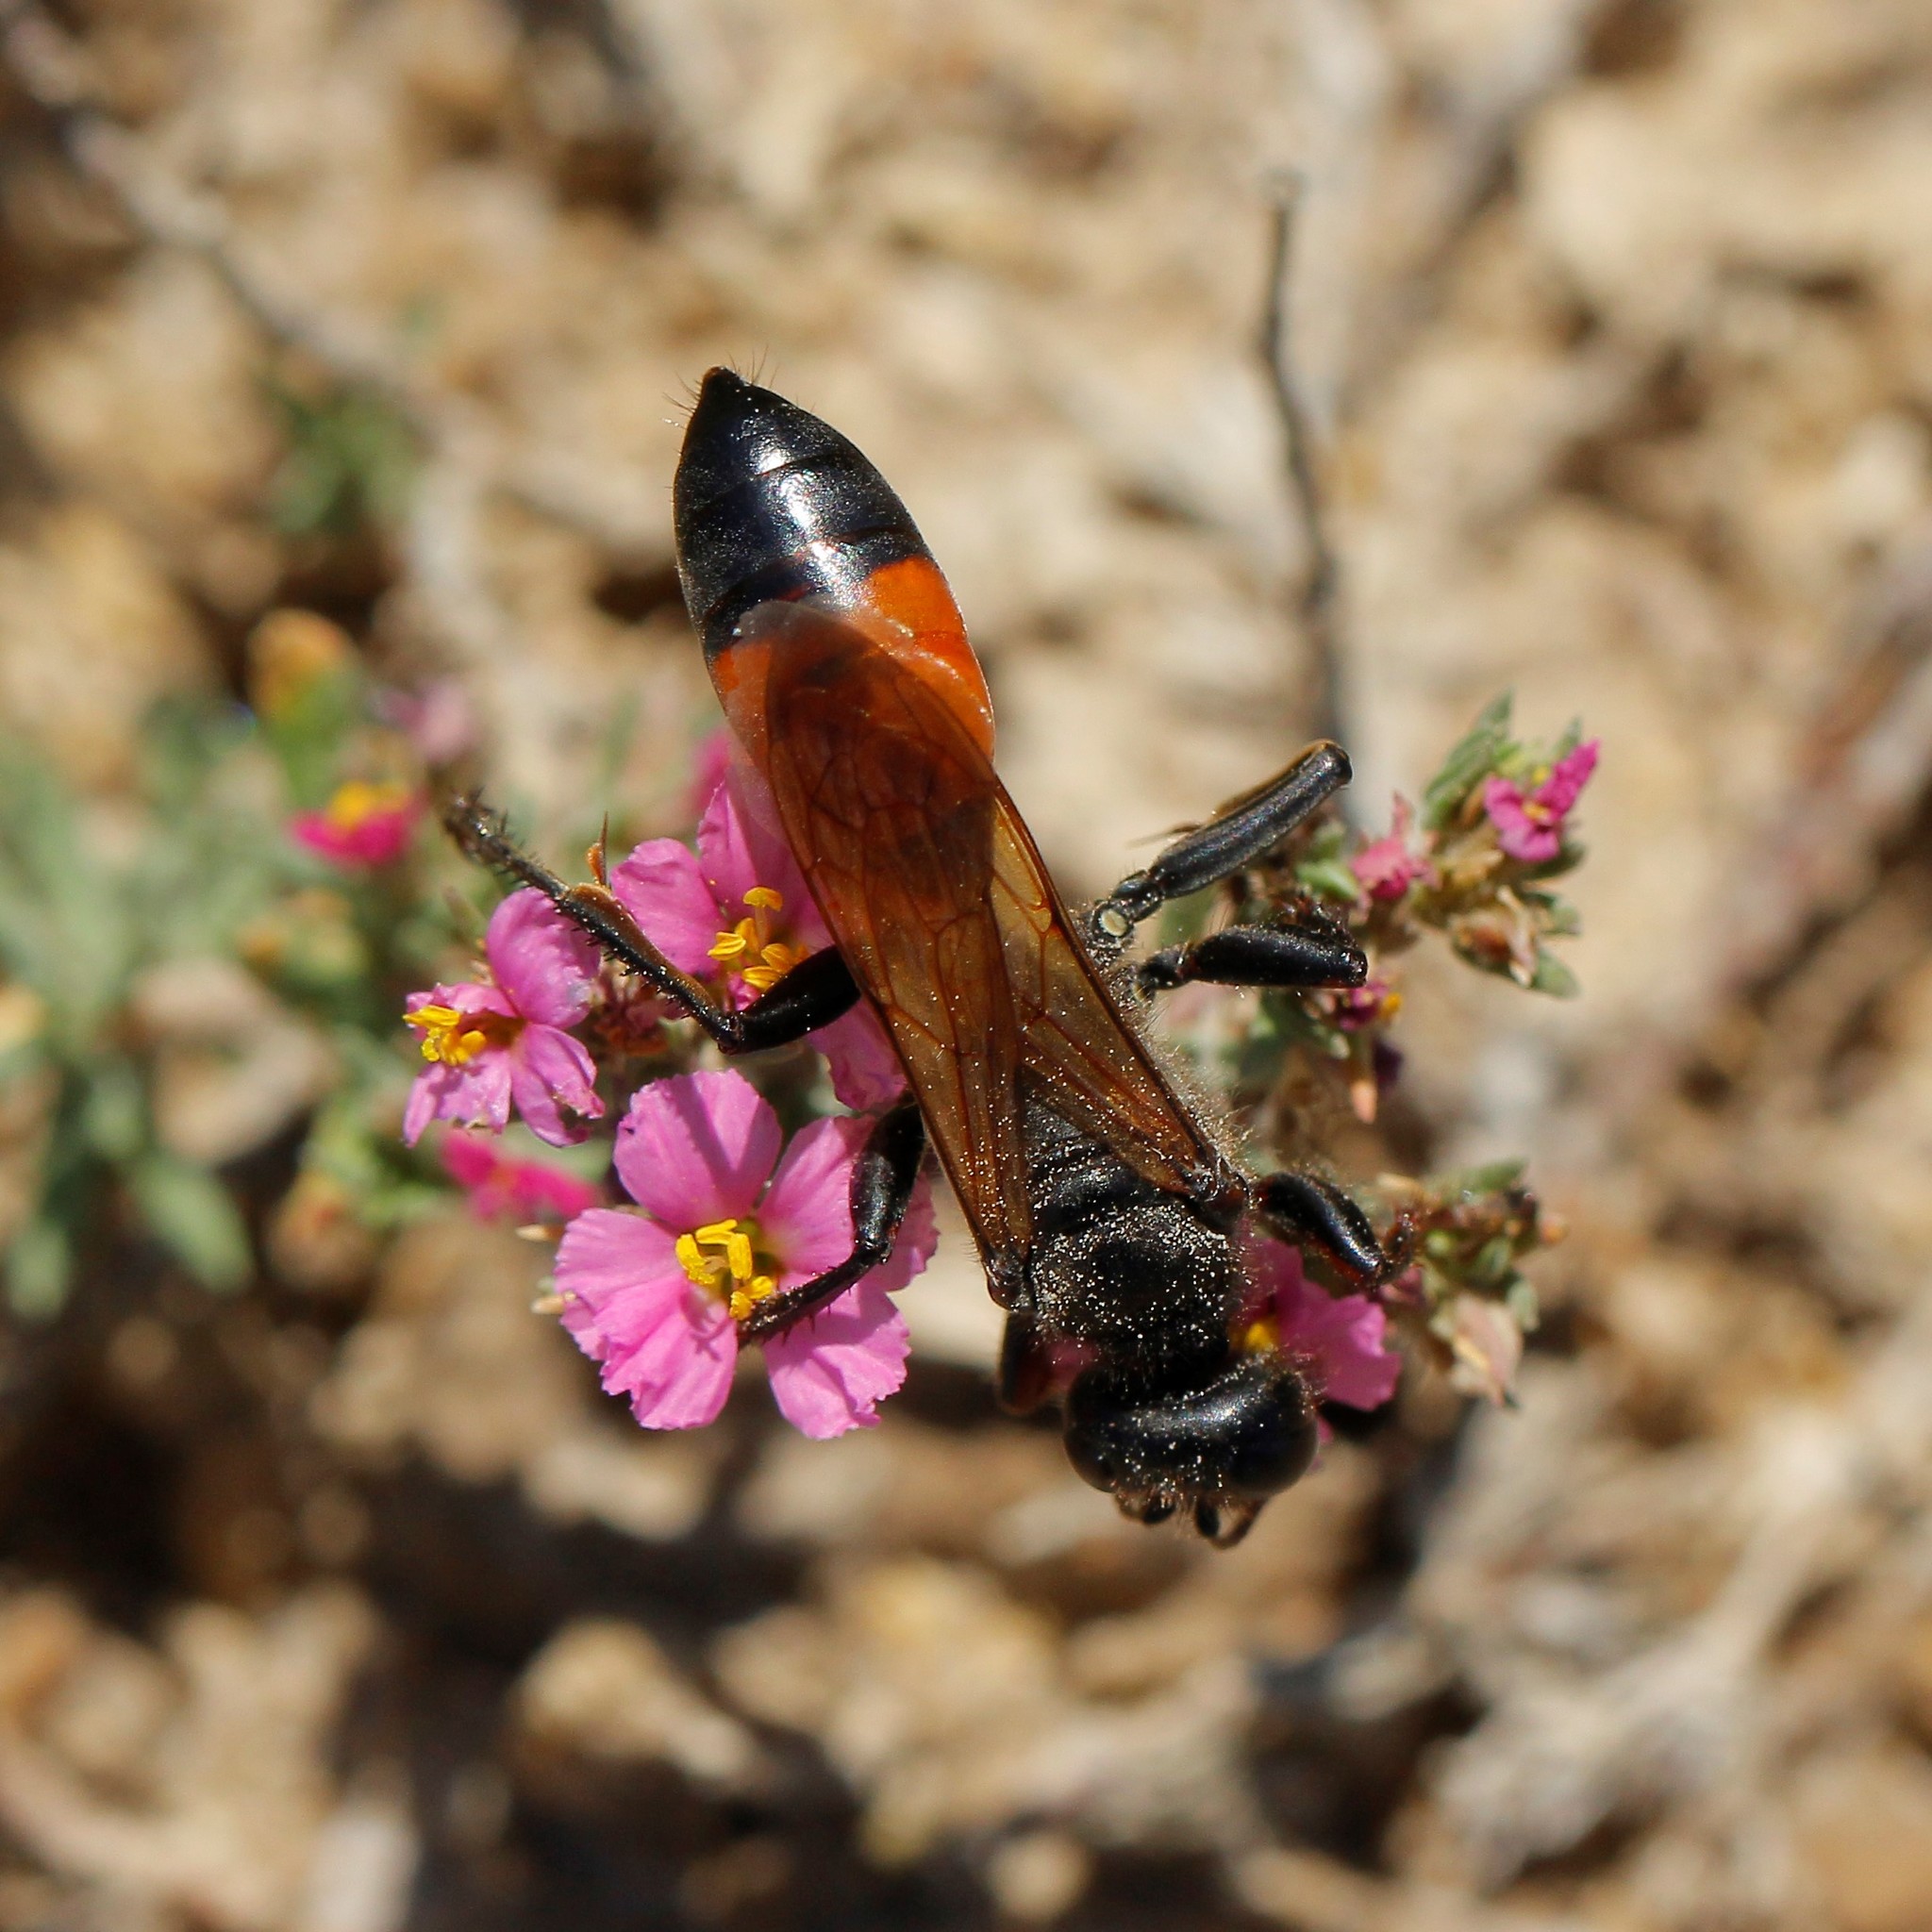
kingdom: Animalia
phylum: Arthropoda
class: Insecta
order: Hymenoptera
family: Sphecidae
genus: Sphex
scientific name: Sphex funerarius
